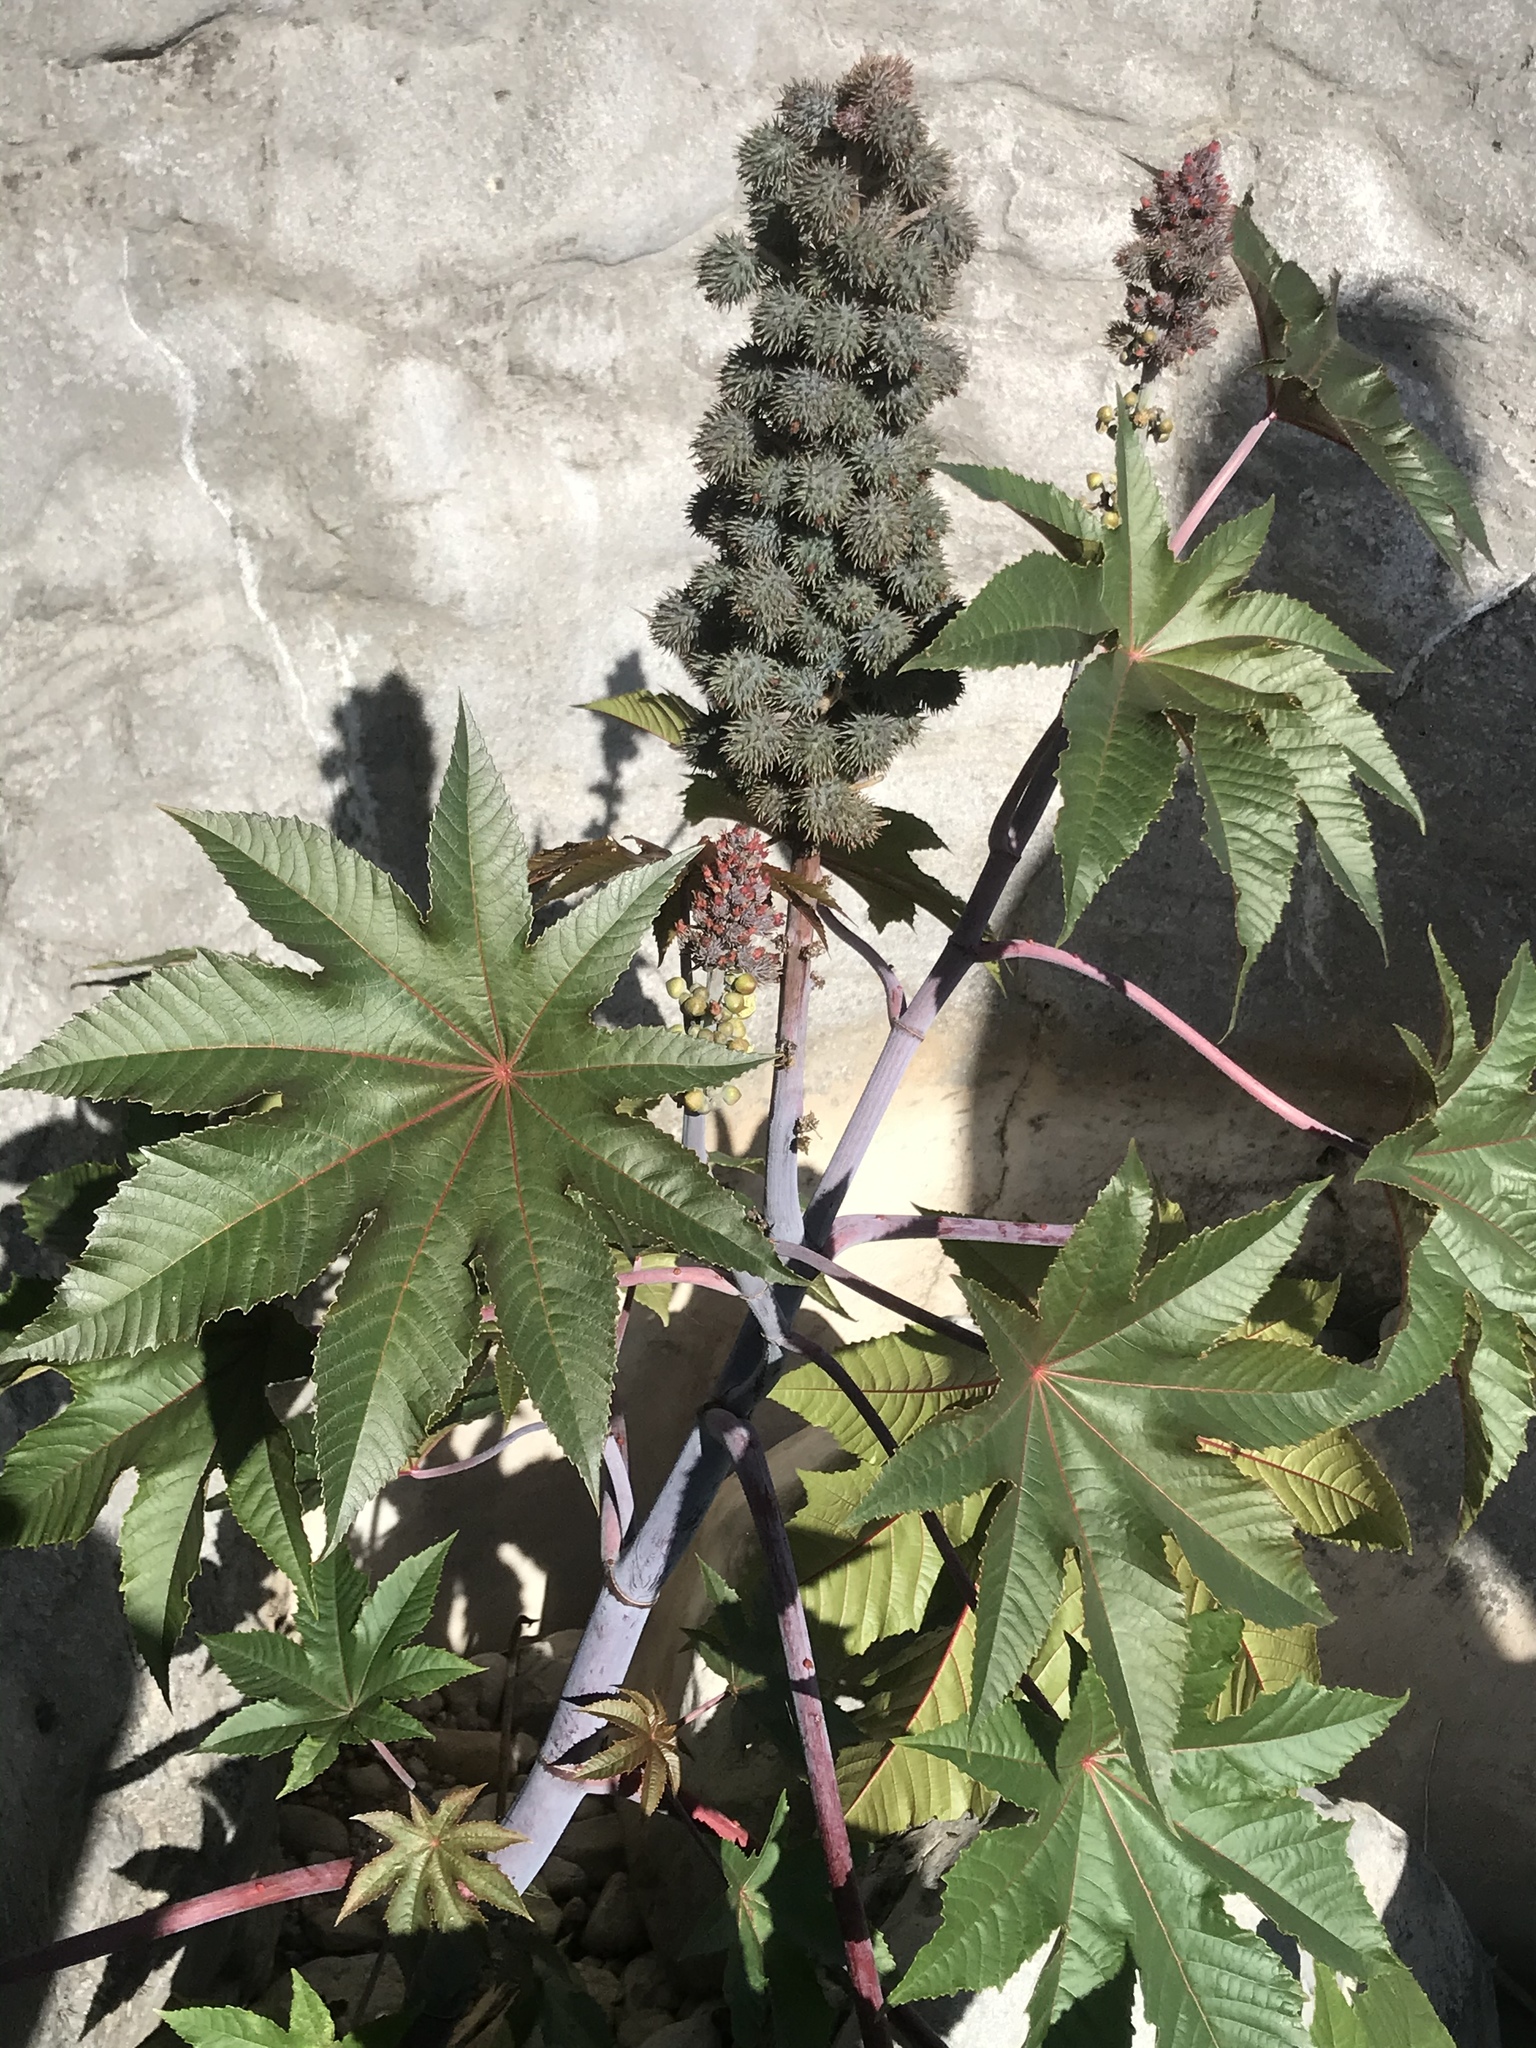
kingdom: Plantae
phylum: Tracheophyta
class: Magnoliopsida
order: Malpighiales
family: Euphorbiaceae
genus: Ricinus
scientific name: Ricinus communis
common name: Castor-oil-plant
